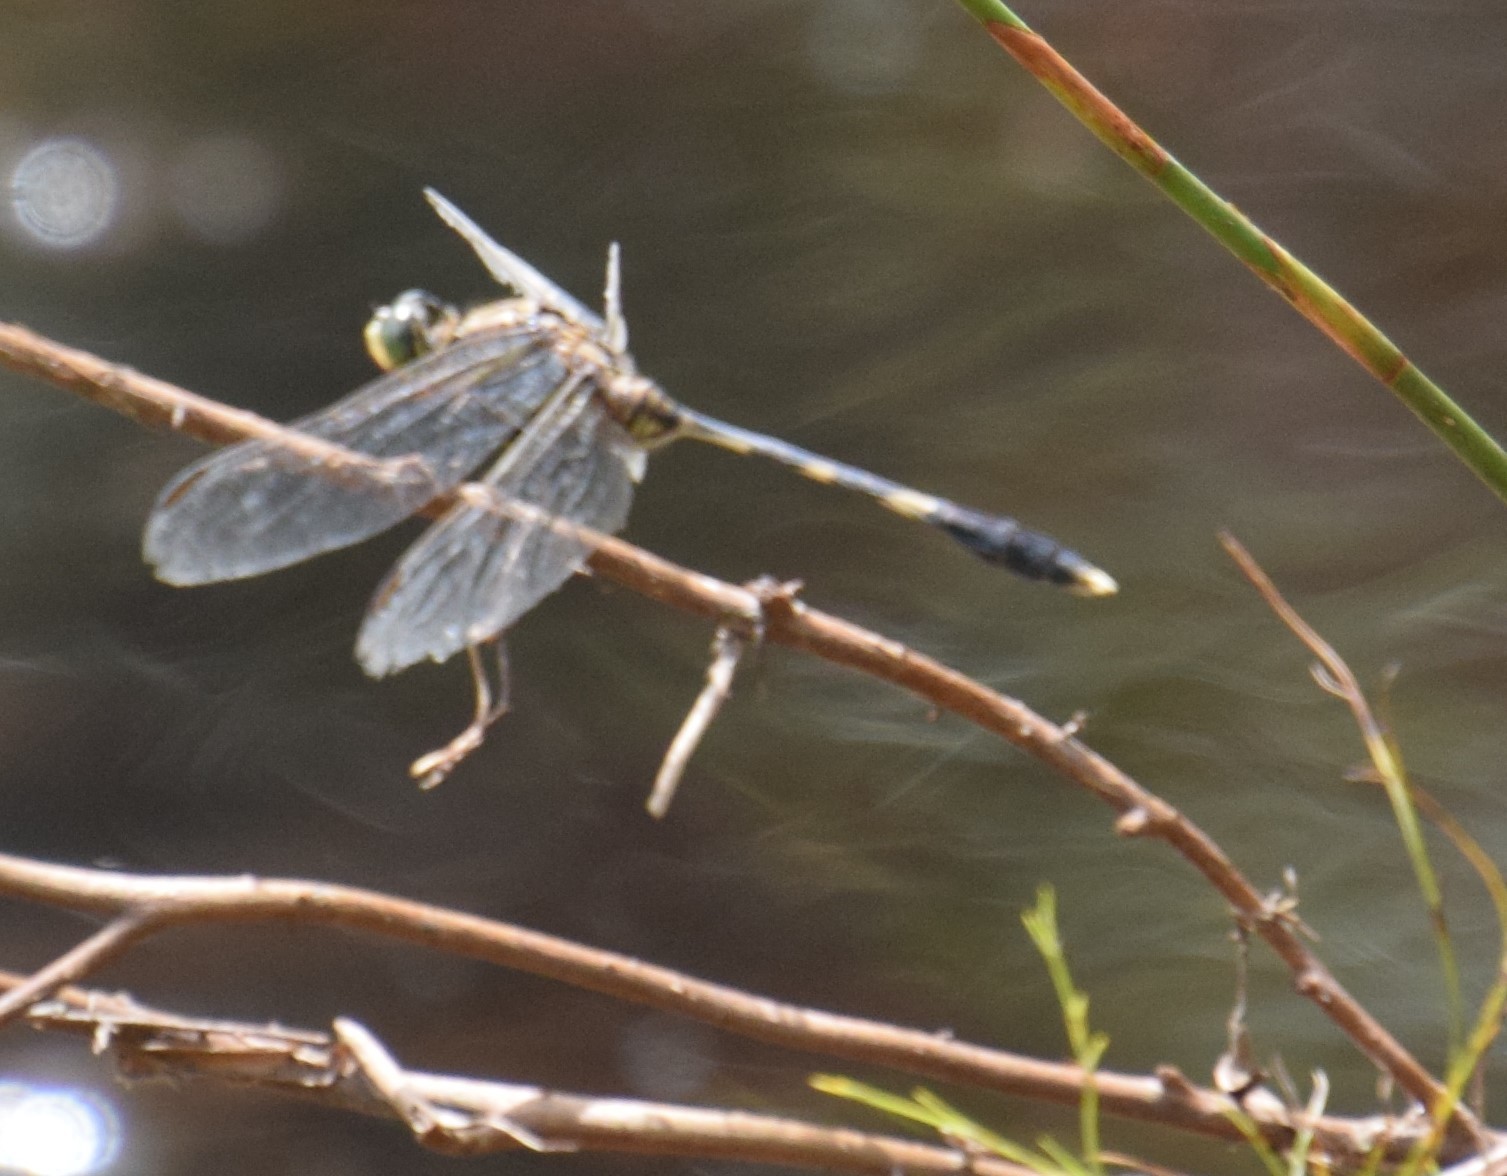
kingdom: Animalia
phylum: Arthropoda
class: Insecta
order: Odonata
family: Libellulidae
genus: Orthetrum
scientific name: Orthetrum sabina
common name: Slender skimmer
